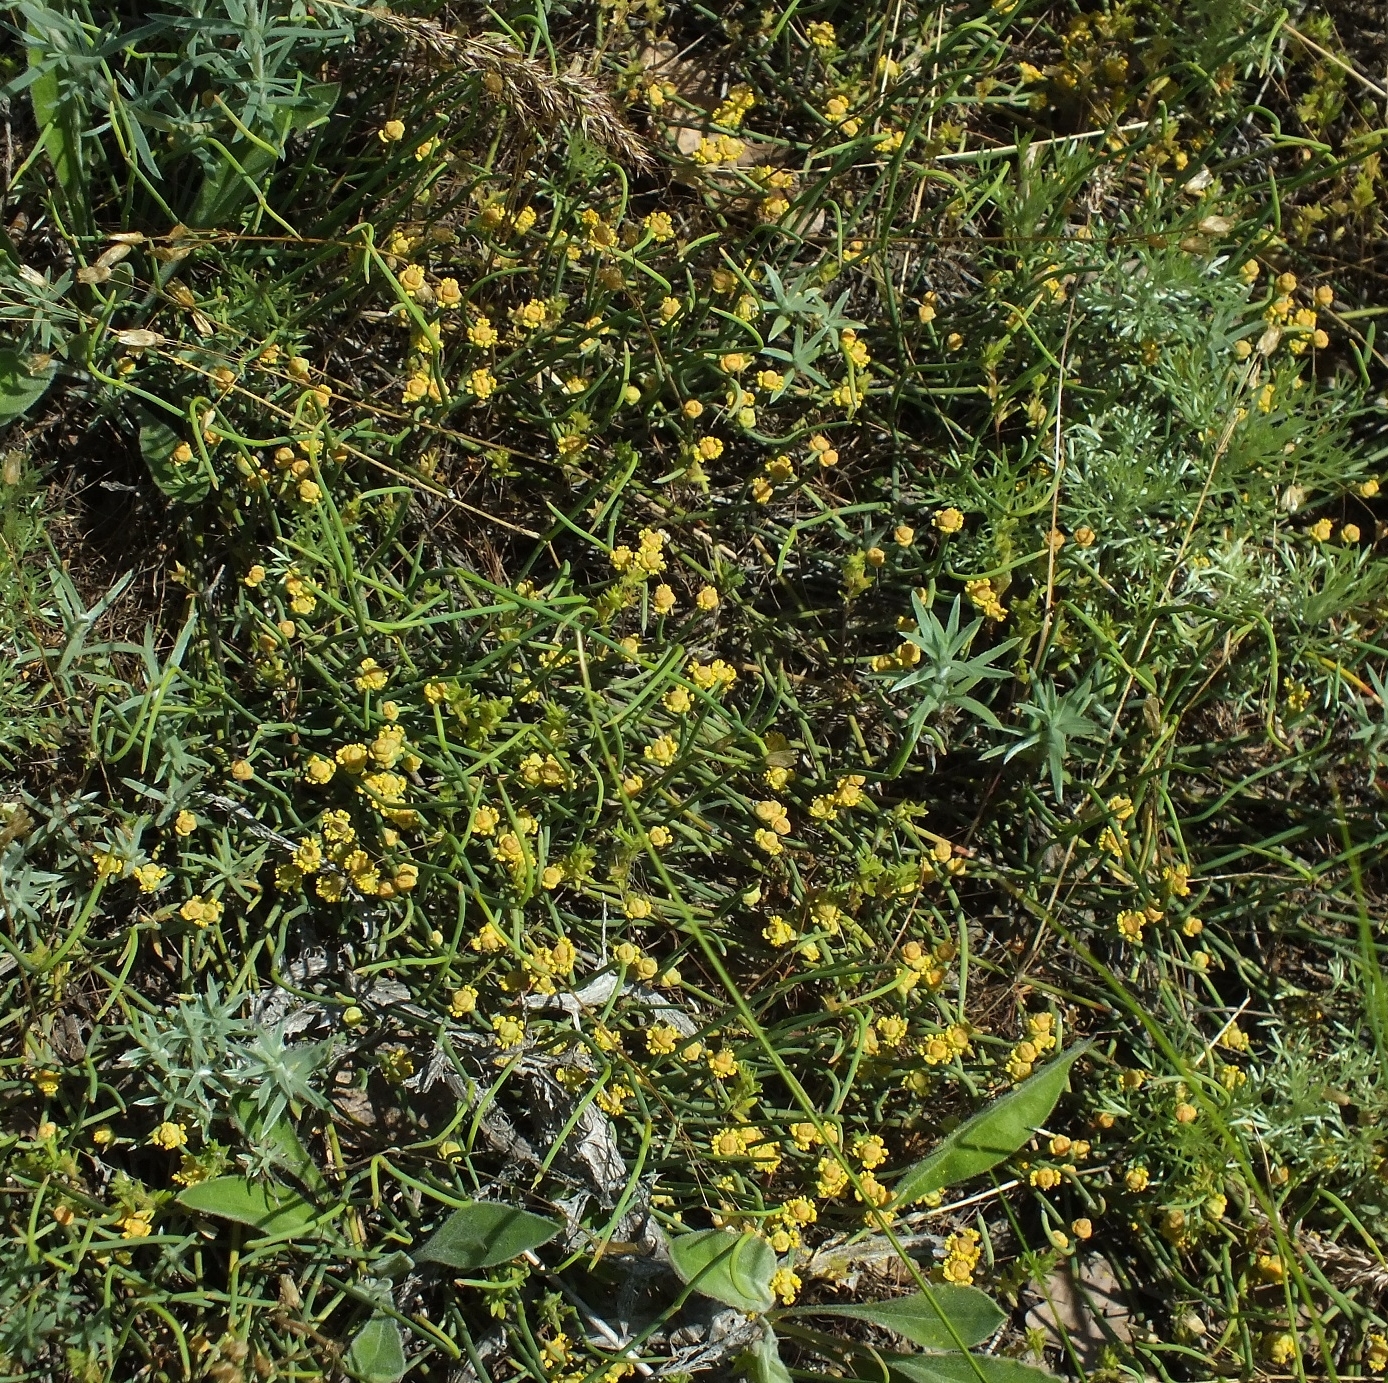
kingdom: Plantae
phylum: Tracheophyta
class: Gnetopsida
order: Ephedrales
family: Ephedraceae
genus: Ephedra
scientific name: Ephedra distachya
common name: Sea grape
